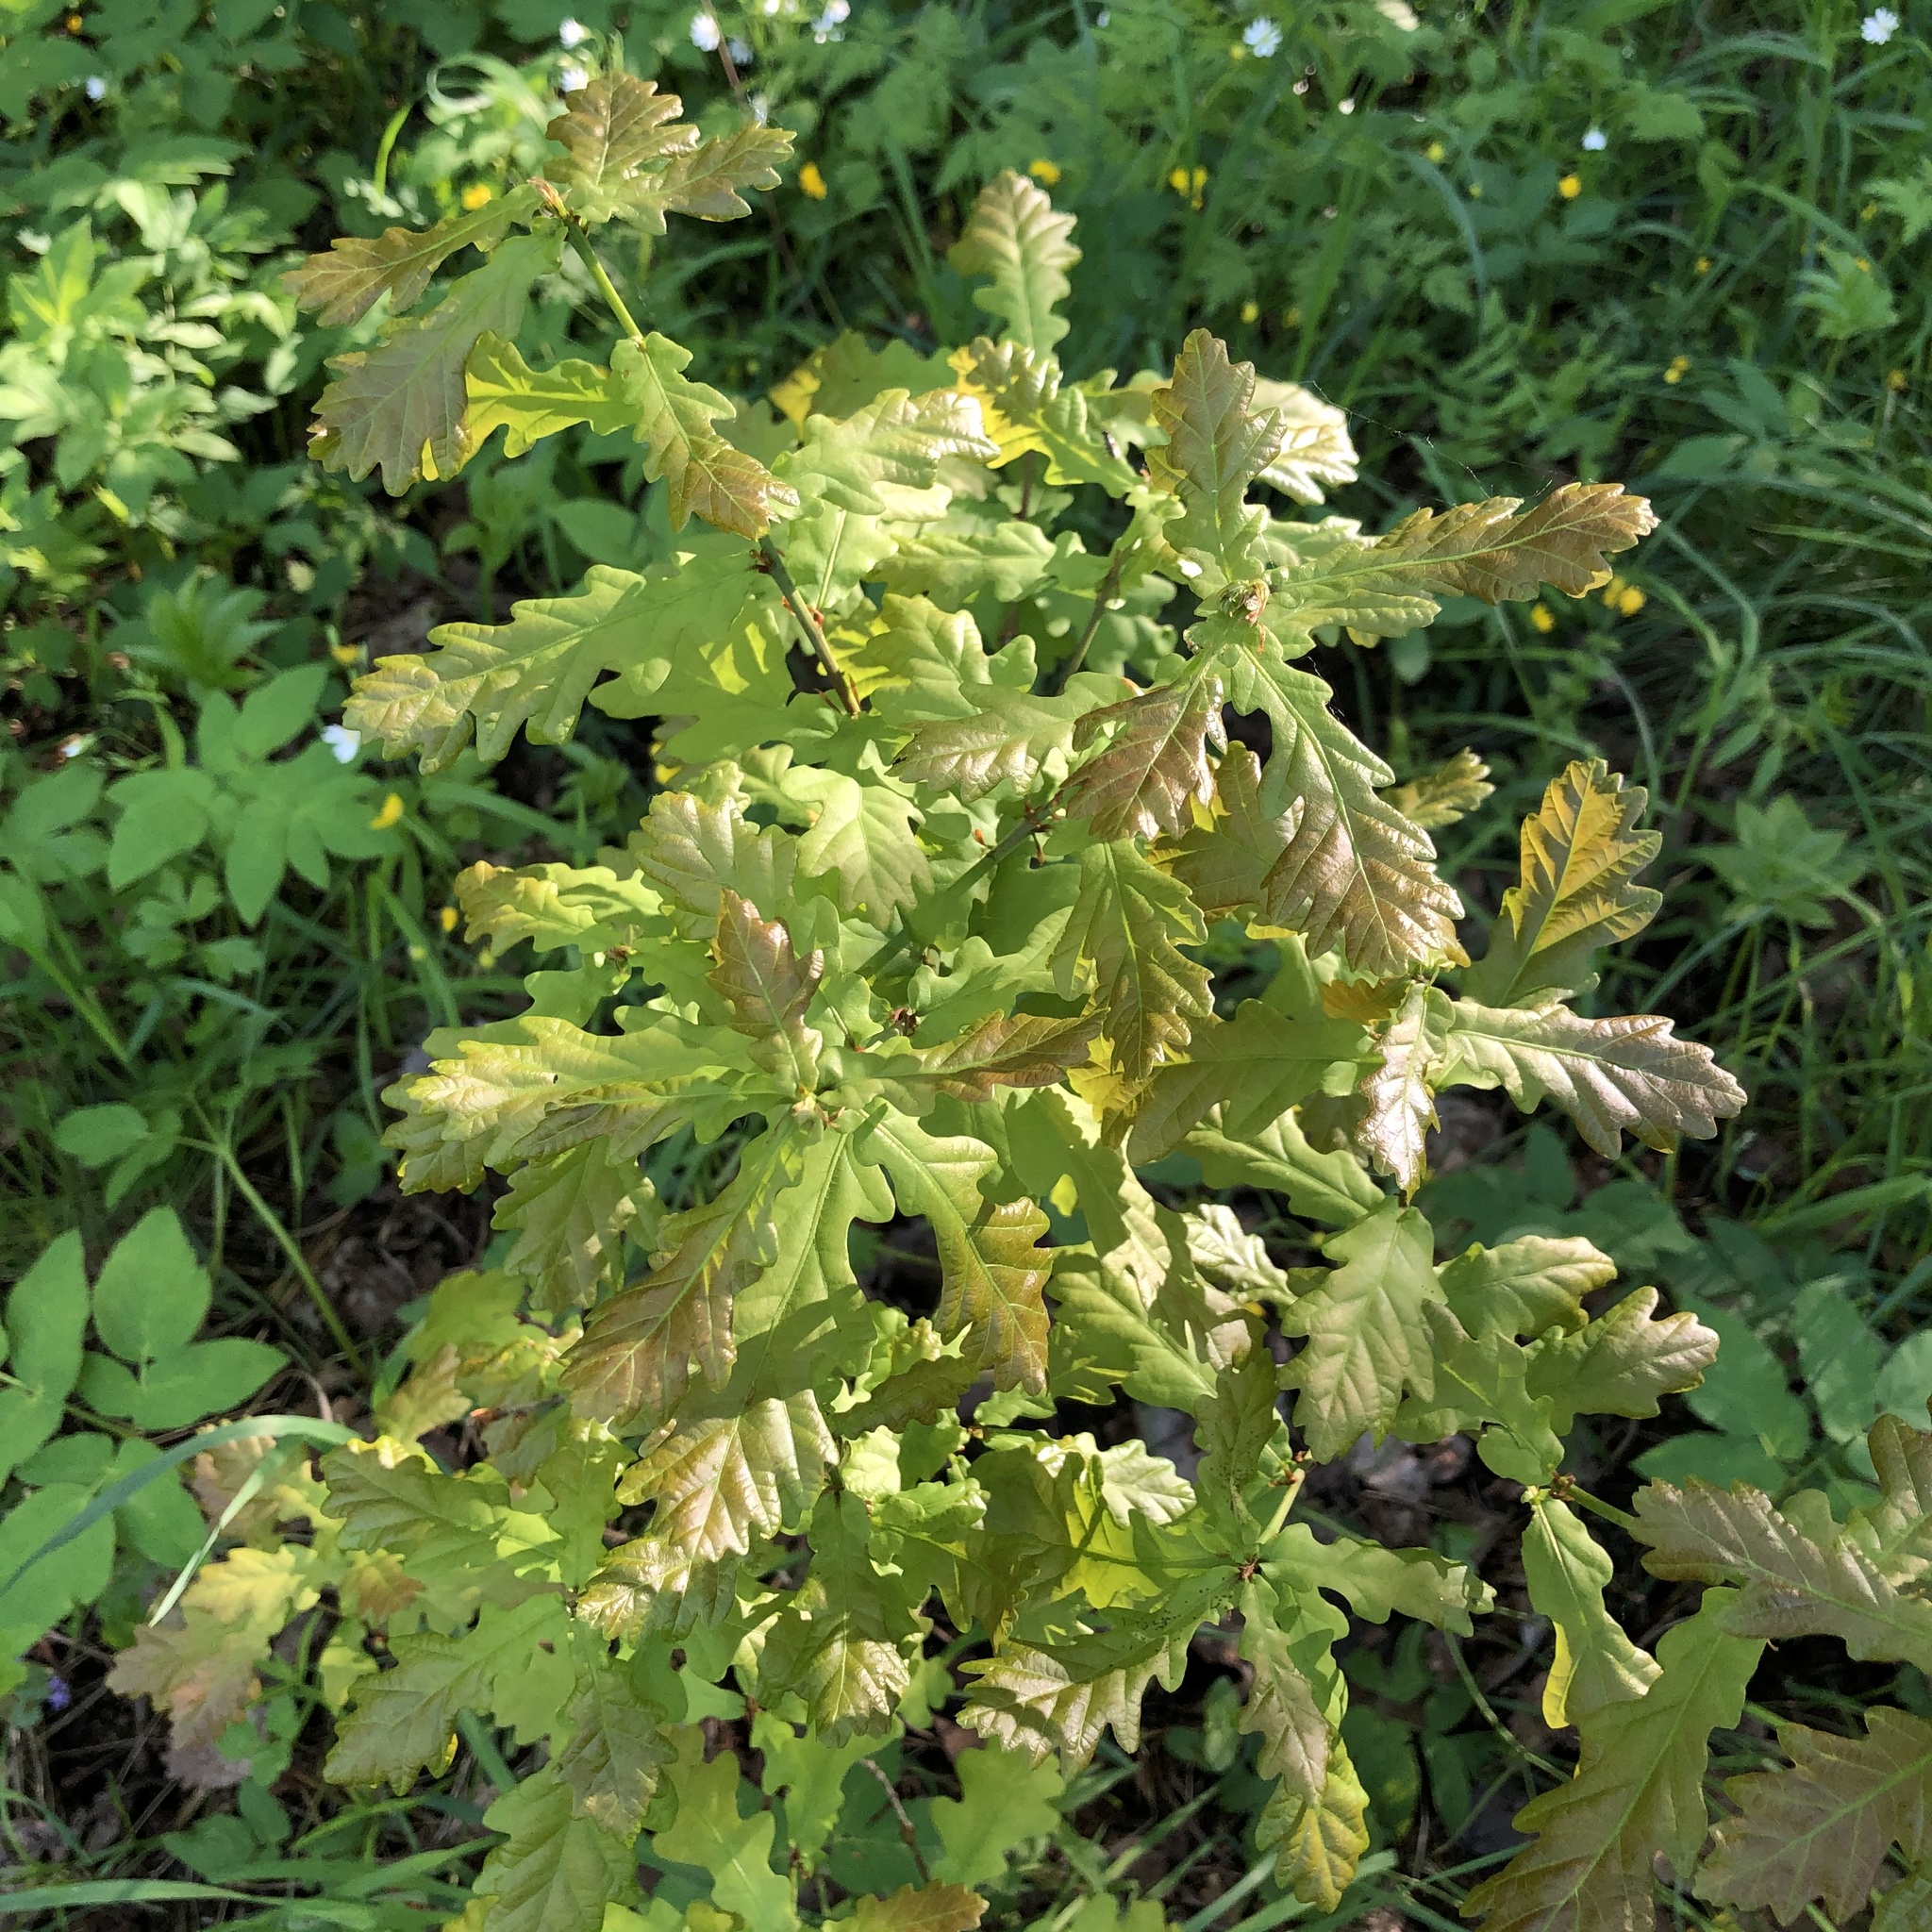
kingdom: Plantae
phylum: Tracheophyta
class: Magnoliopsida
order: Fagales
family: Fagaceae
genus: Quercus
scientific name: Quercus robur
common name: Pedunculate oak
